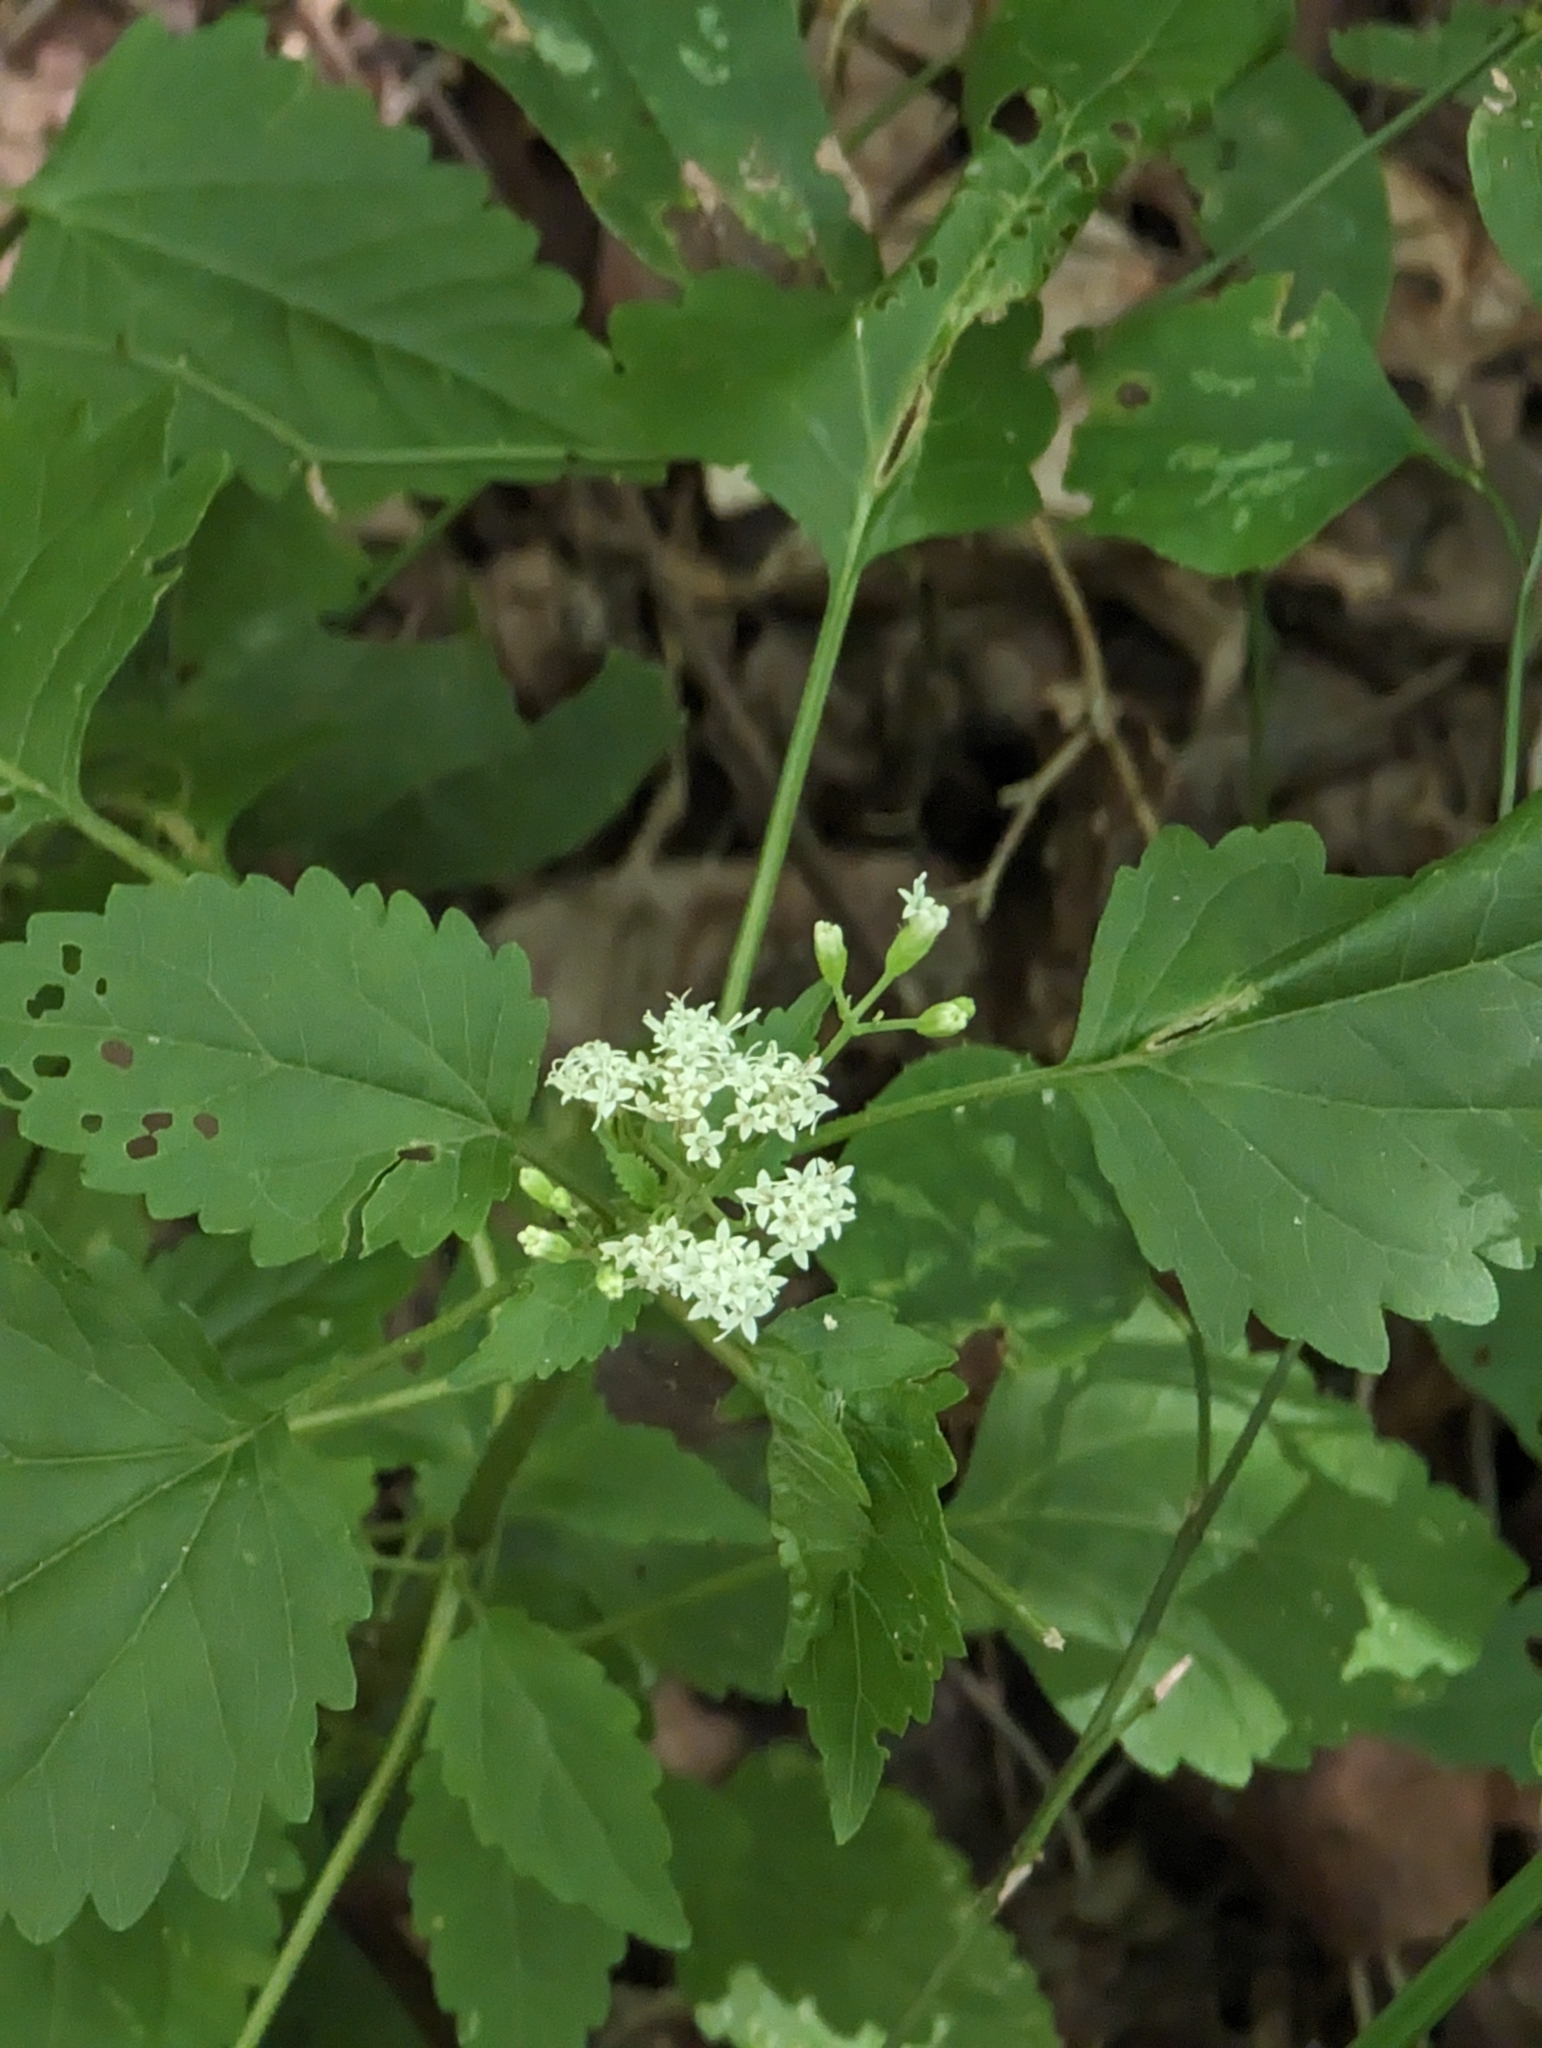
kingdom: Plantae
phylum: Tracheophyta
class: Magnoliopsida
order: Asterales
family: Asteraceae
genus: Ageratina
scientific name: Ageratina jucunda
